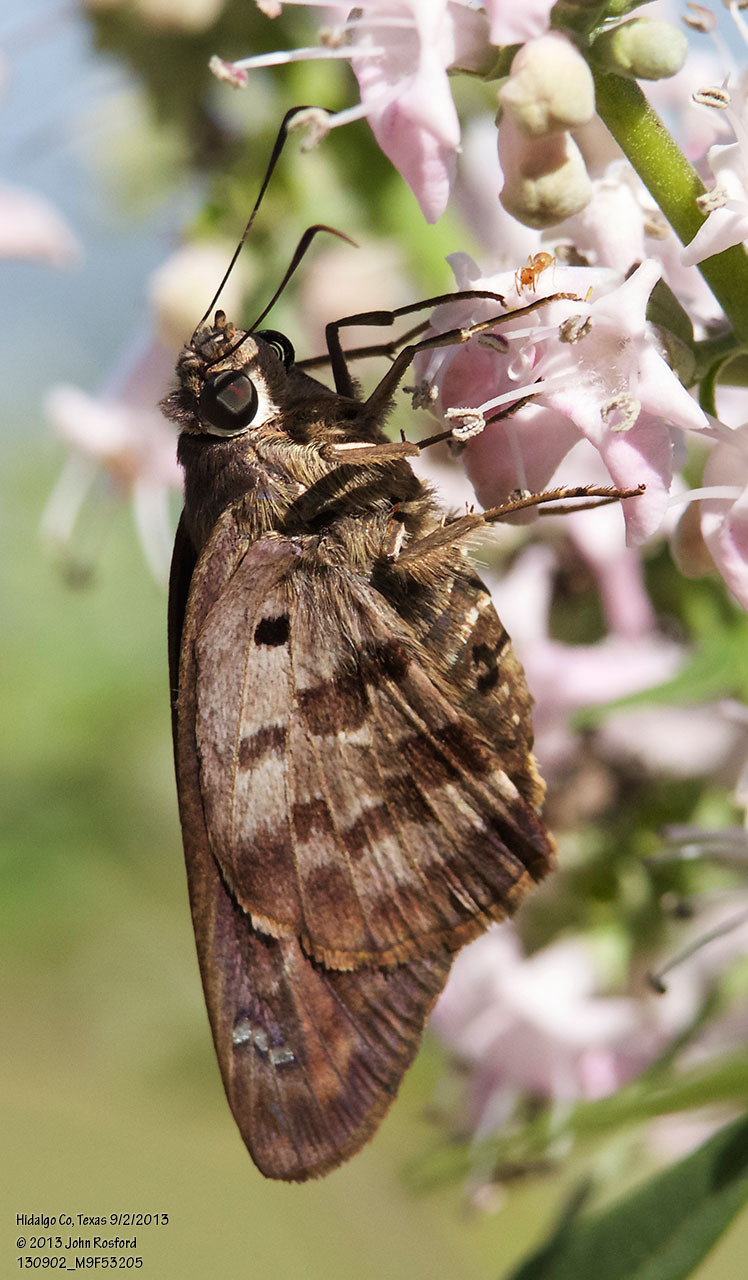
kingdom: Animalia
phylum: Arthropoda
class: Insecta
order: Lepidoptera
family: Hesperiidae
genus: Polygonus
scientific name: Polygonus leo
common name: Hammoch skipper
